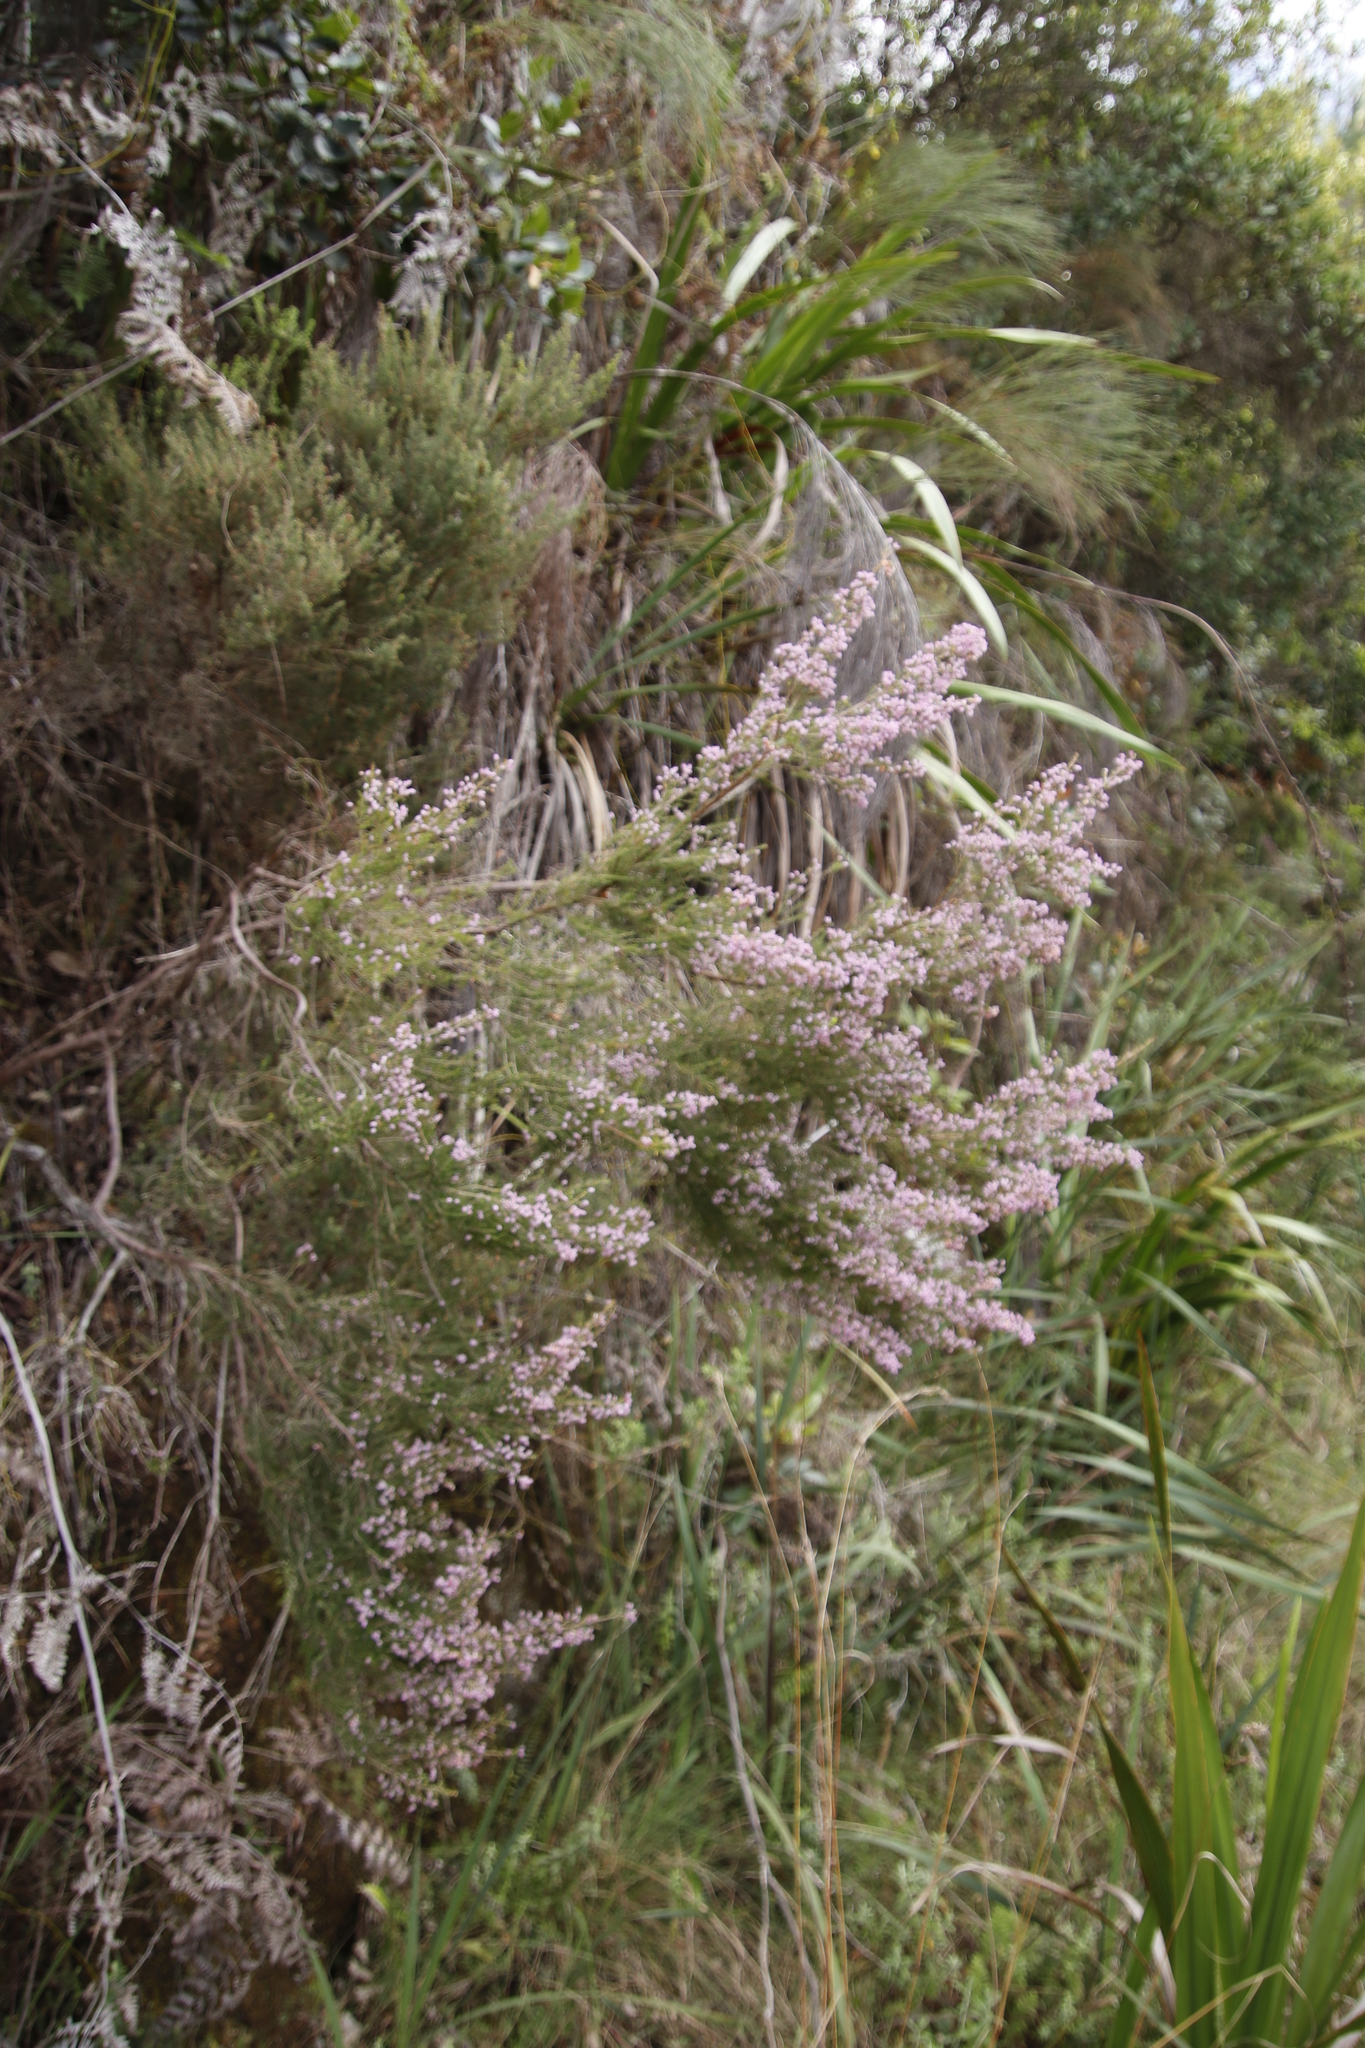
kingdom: Plantae
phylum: Tracheophyta
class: Magnoliopsida
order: Ericales
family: Ericaceae
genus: Erica
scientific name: Erica hirtiflora
